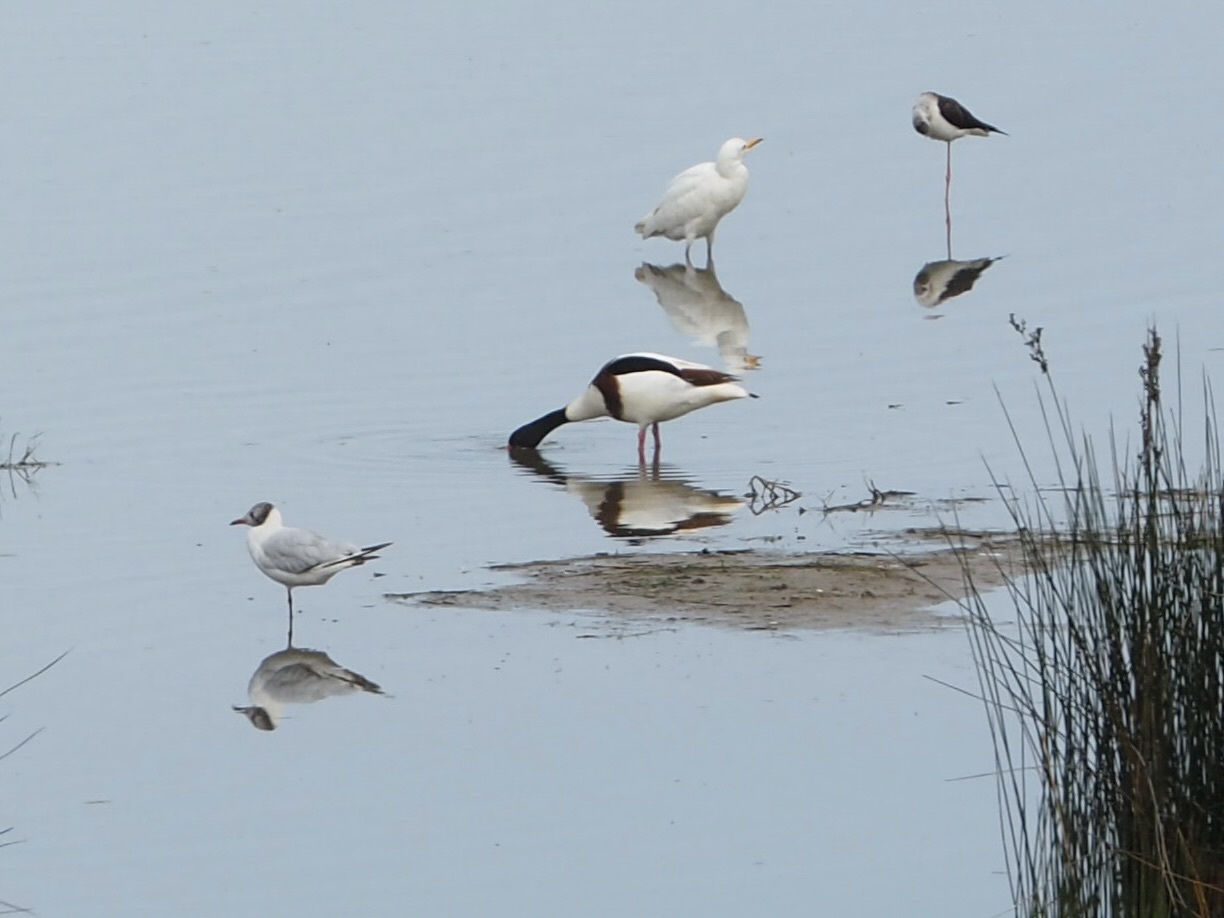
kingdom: Animalia
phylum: Chordata
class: Aves
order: Charadriiformes
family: Laridae
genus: Chroicocephalus
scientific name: Chroicocephalus ridibundus
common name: Black-headed gull
